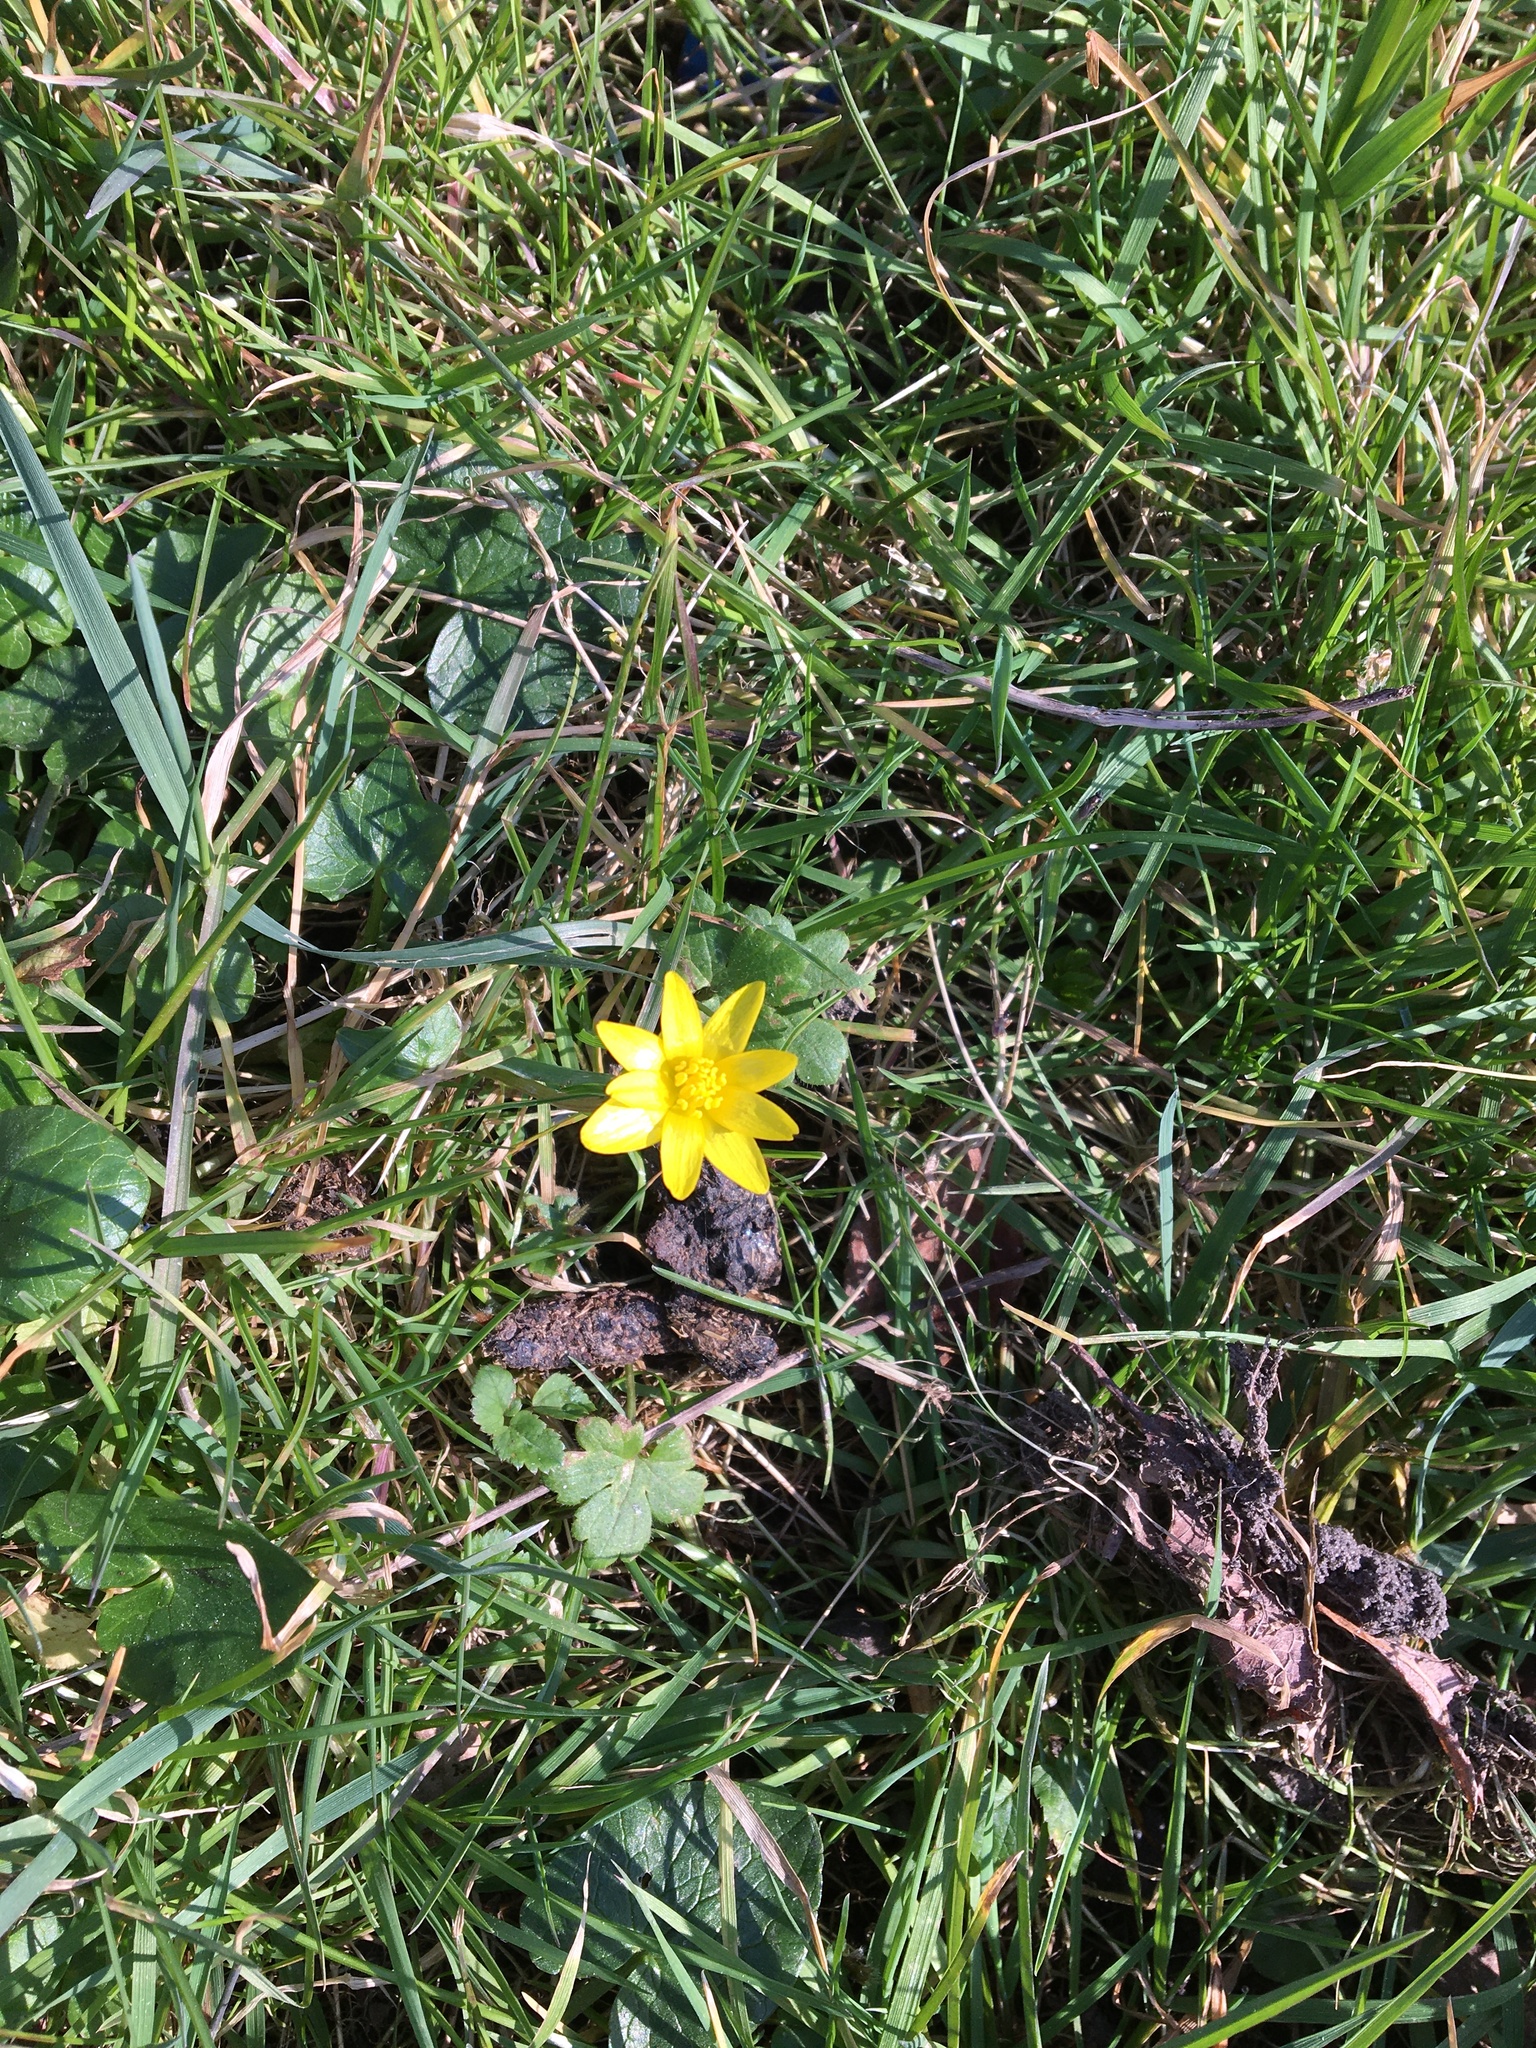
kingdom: Plantae
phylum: Tracheophyta
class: Magnoliopsida
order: Ranunculales
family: Ranunculaceae
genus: Ficaria
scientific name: Ficaria verna
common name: Lesser celandine
